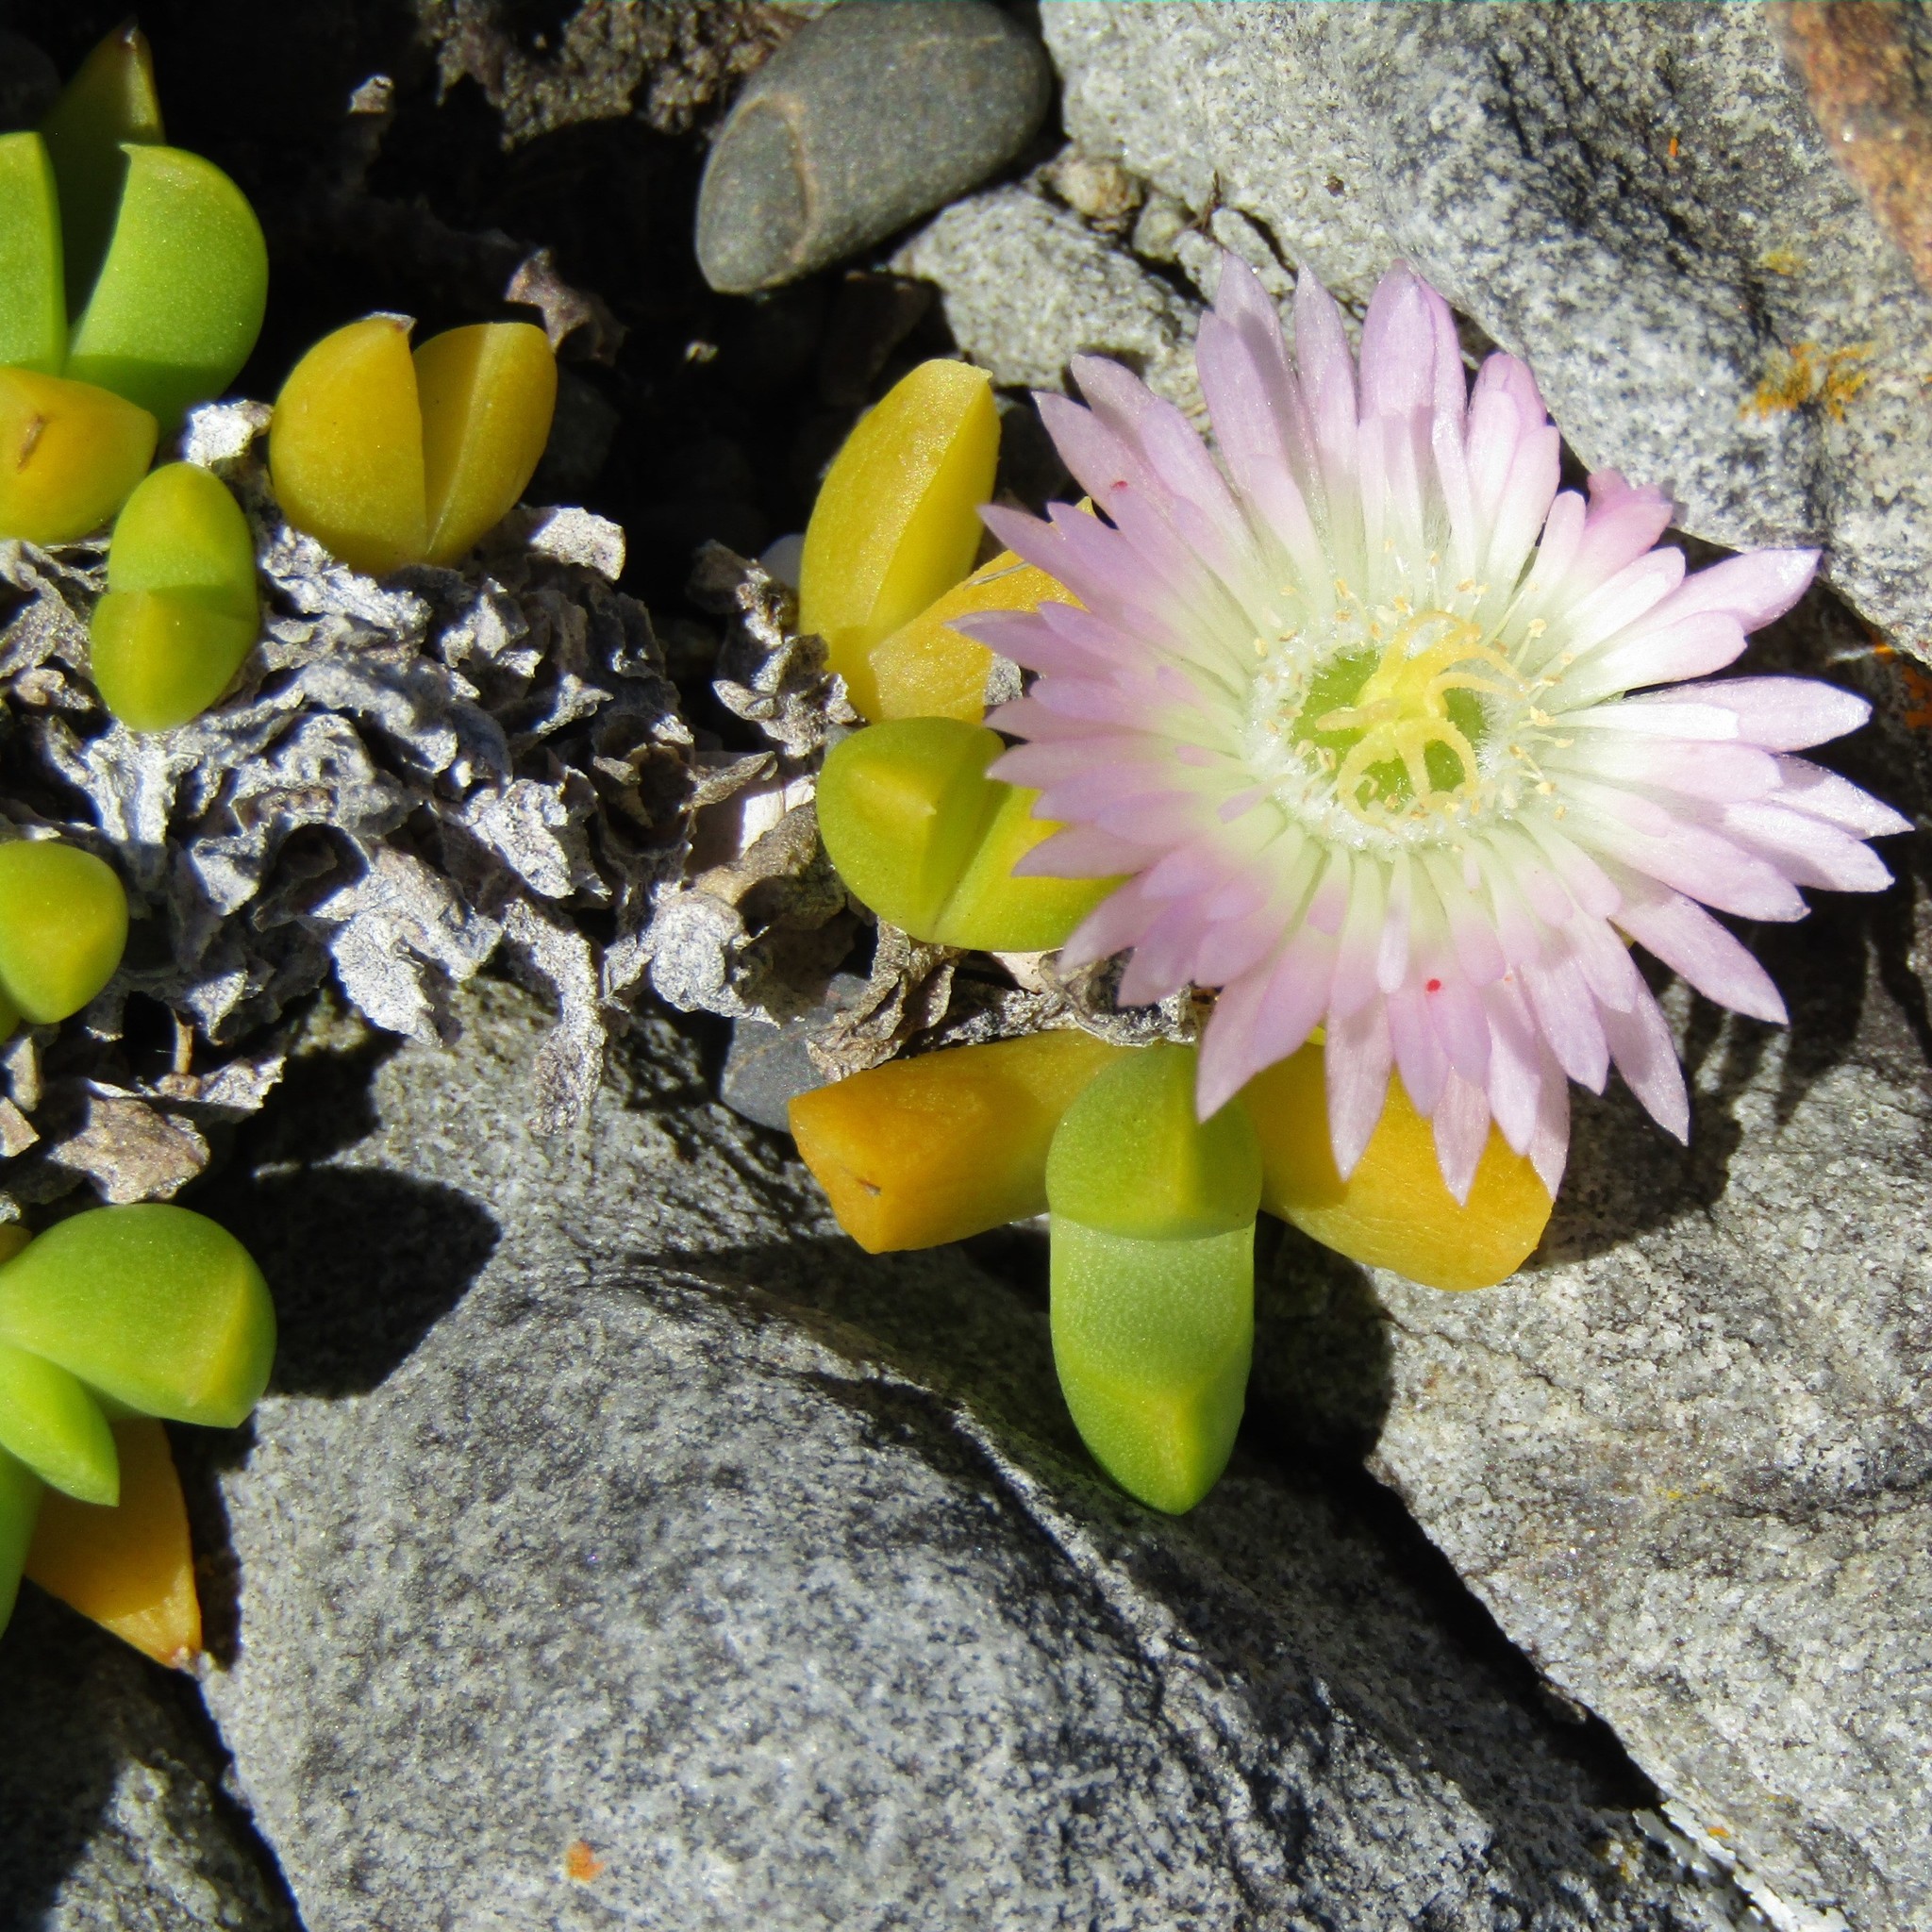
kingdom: Plantae
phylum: Tracheophyta
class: Magnoliopsida
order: Caryophyllales
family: Aizoaceae
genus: Disphyma
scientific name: Disphyma australe
